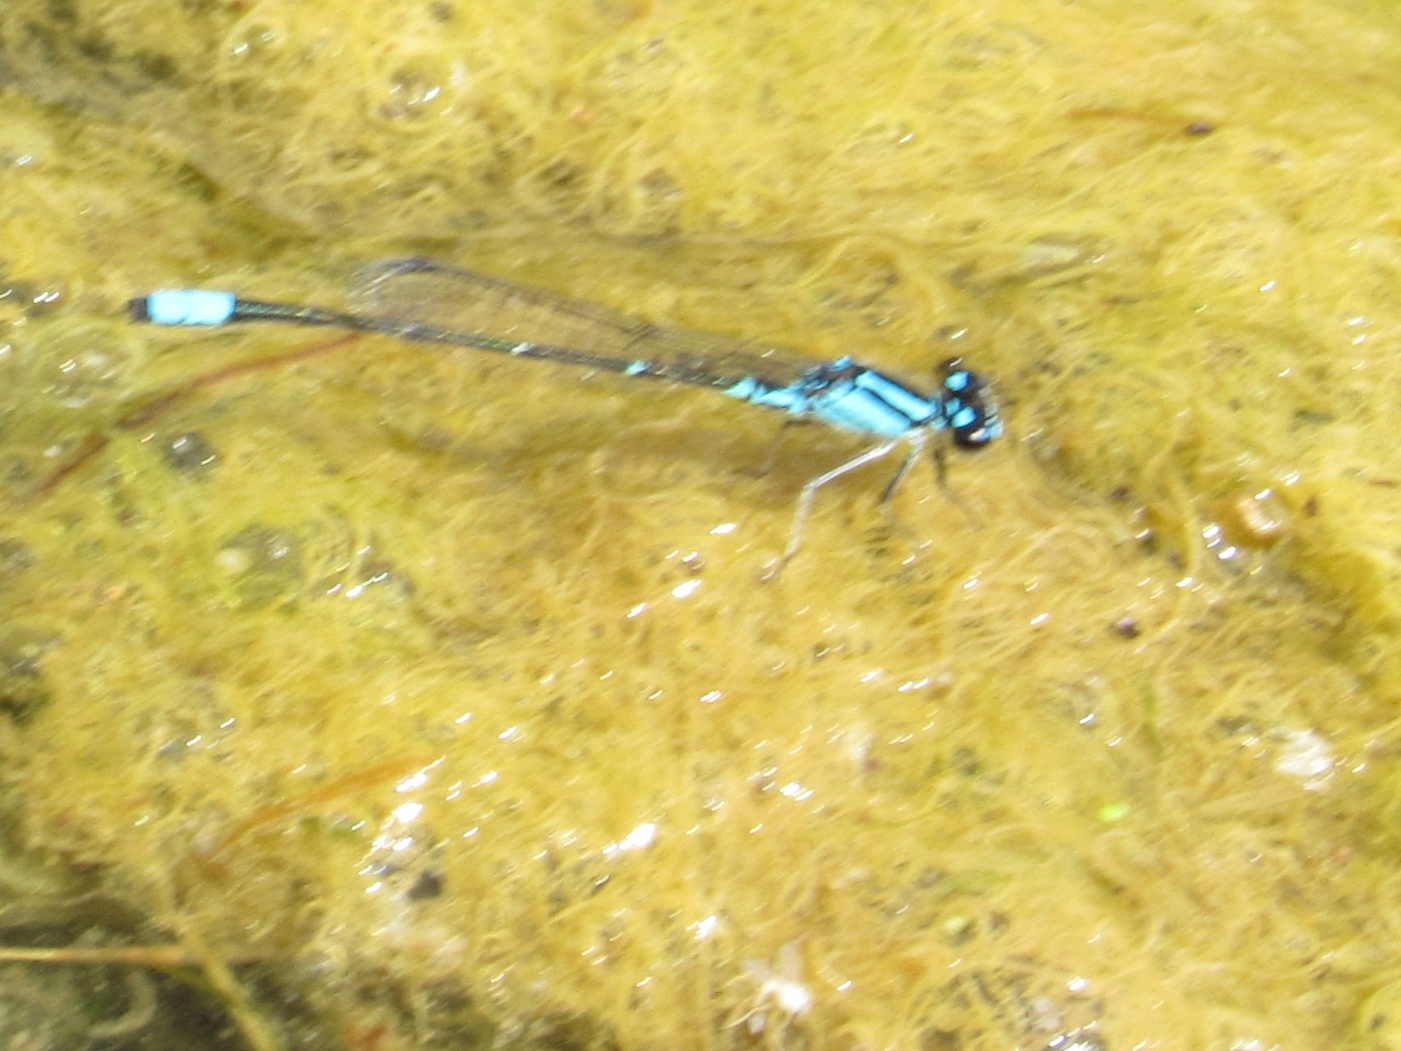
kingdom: Animalia
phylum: Arthropoda
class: Insecta
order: Odonata
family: Coenagrionidae
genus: Enallagma
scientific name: Enallagma geminatum
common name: Skimming bluet
